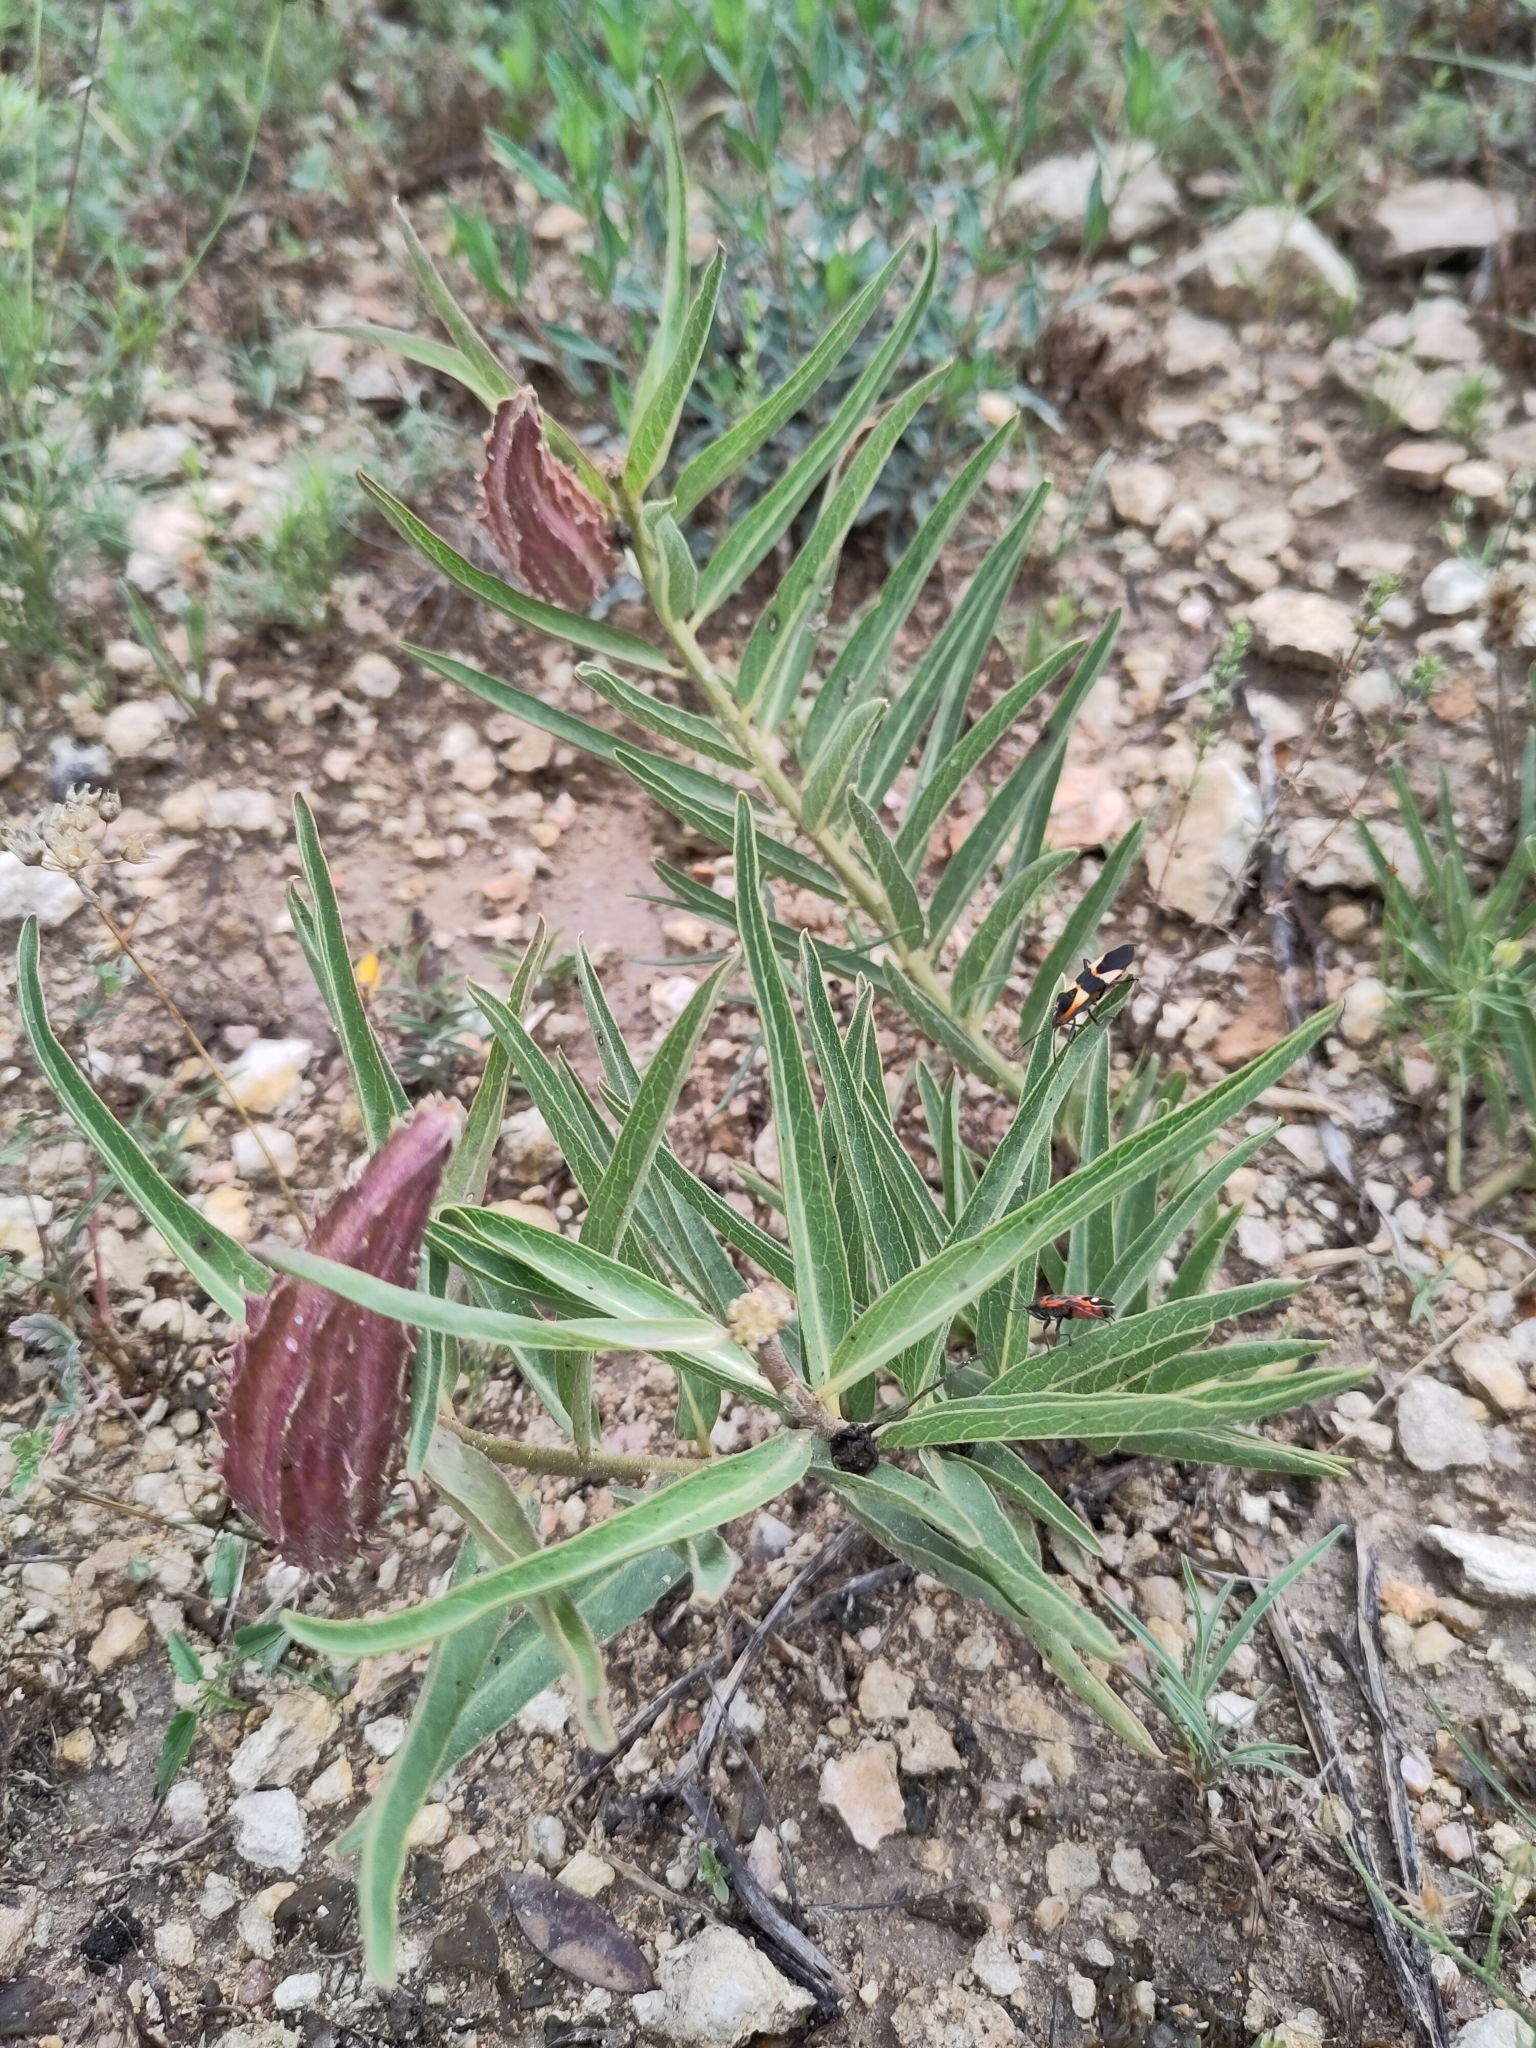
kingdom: Plantae
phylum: Tracheophyta
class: Magnoliopsida
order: Gentianales
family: Apocynaceae
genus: Asclepias
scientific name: Asclepias asperula
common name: Antelope horns
